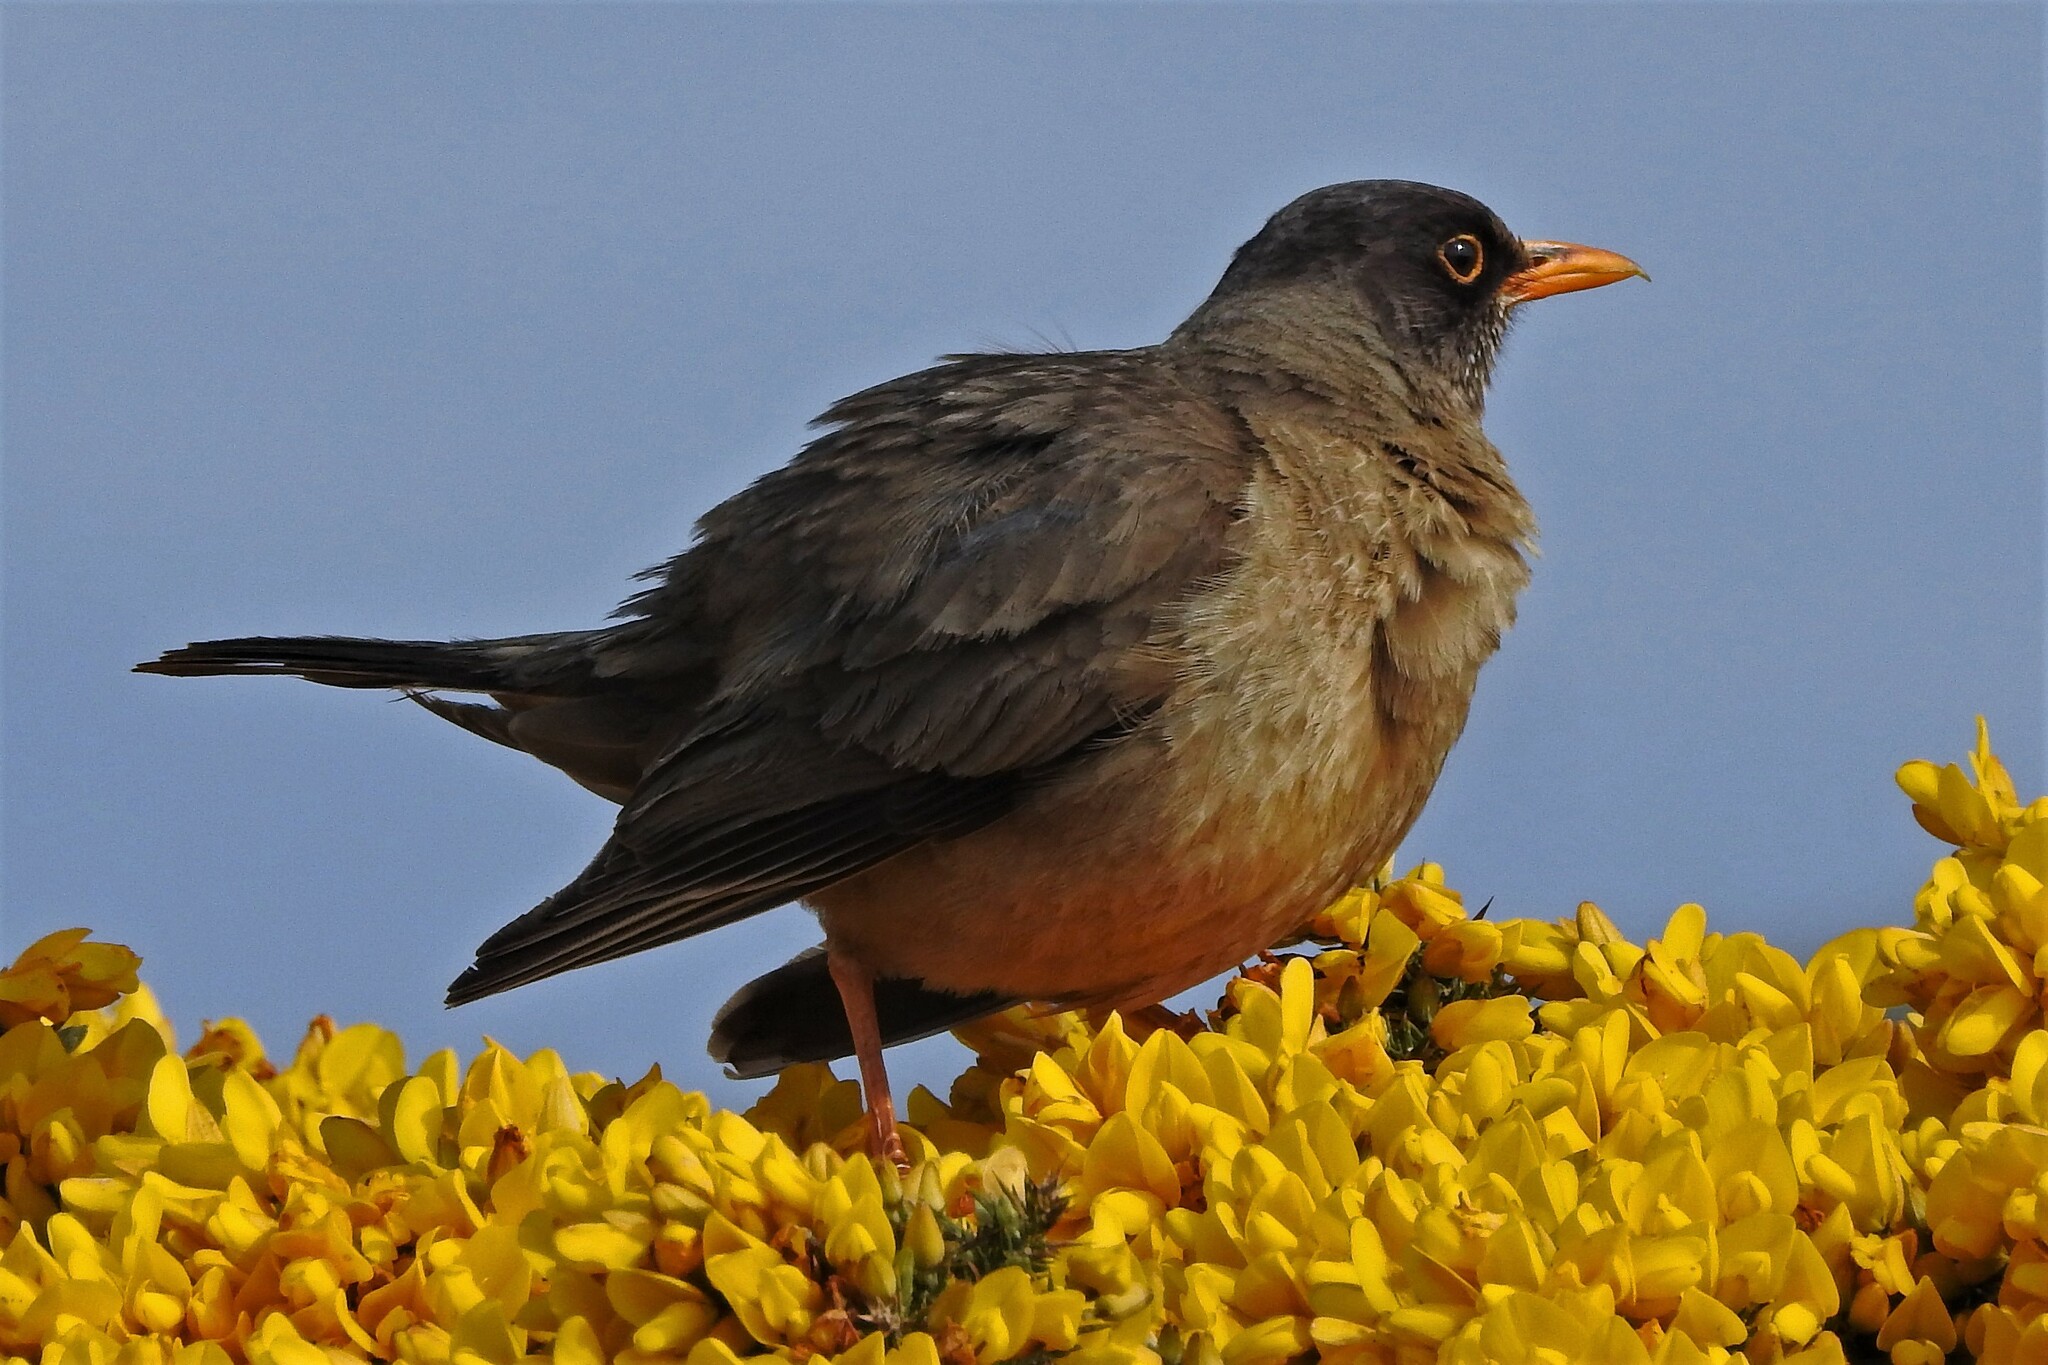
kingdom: Animalia
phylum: Chordata
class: Aves
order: Passeriformes
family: Turdidae
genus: Turdus
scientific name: Turdus falcklandii
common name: Austral thrush
